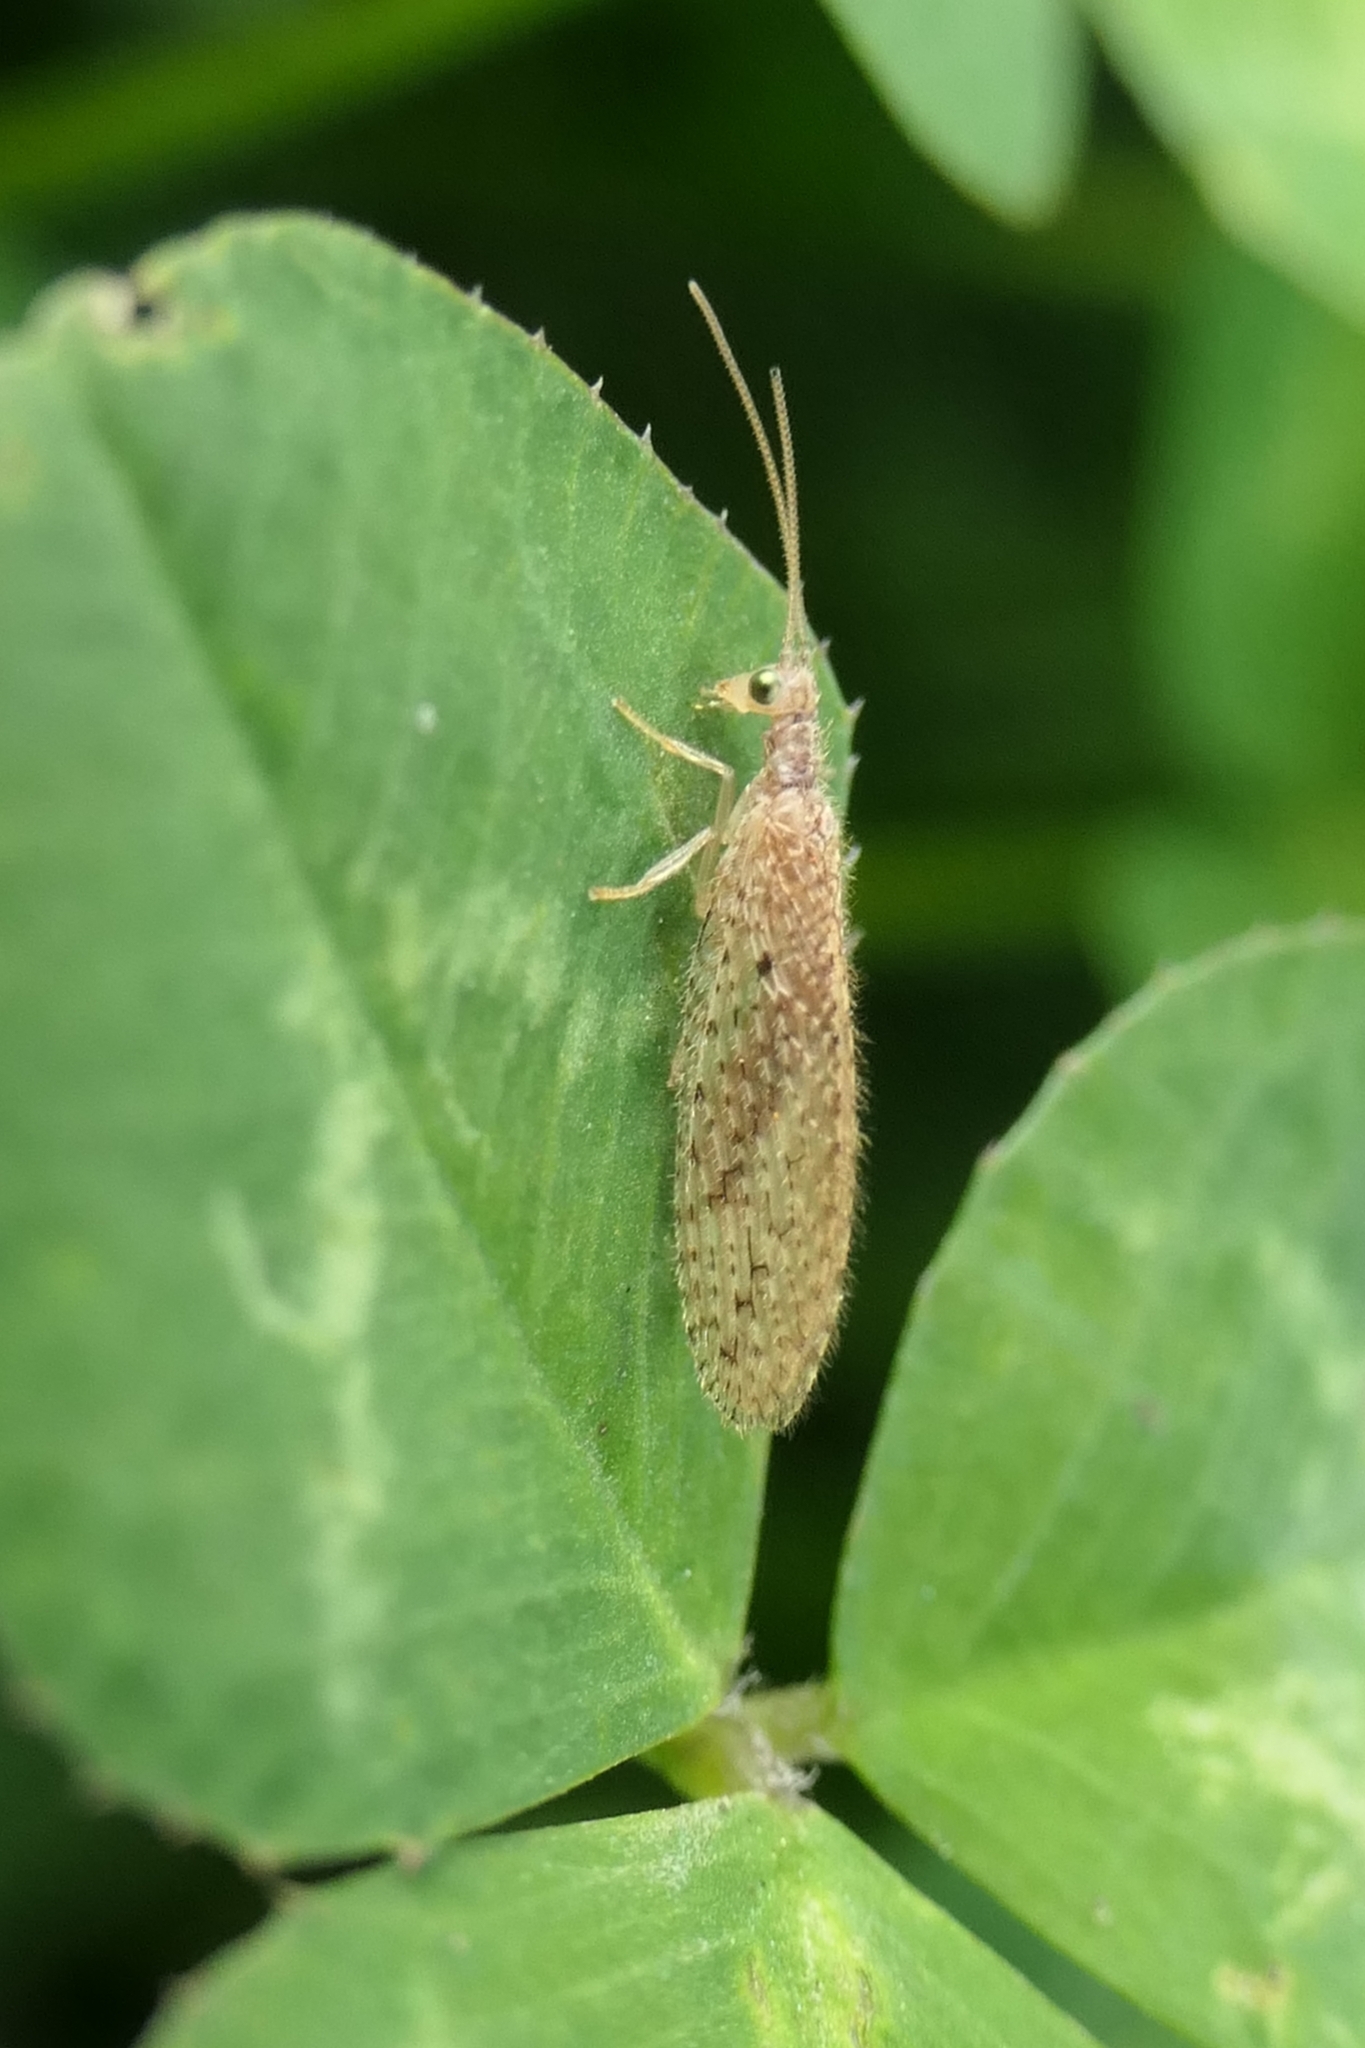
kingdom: Animalia
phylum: Arthropoda
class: Insecta
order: Neuroptera
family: Hemerobiidae
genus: Micromus
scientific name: Micromus tasmaniae
